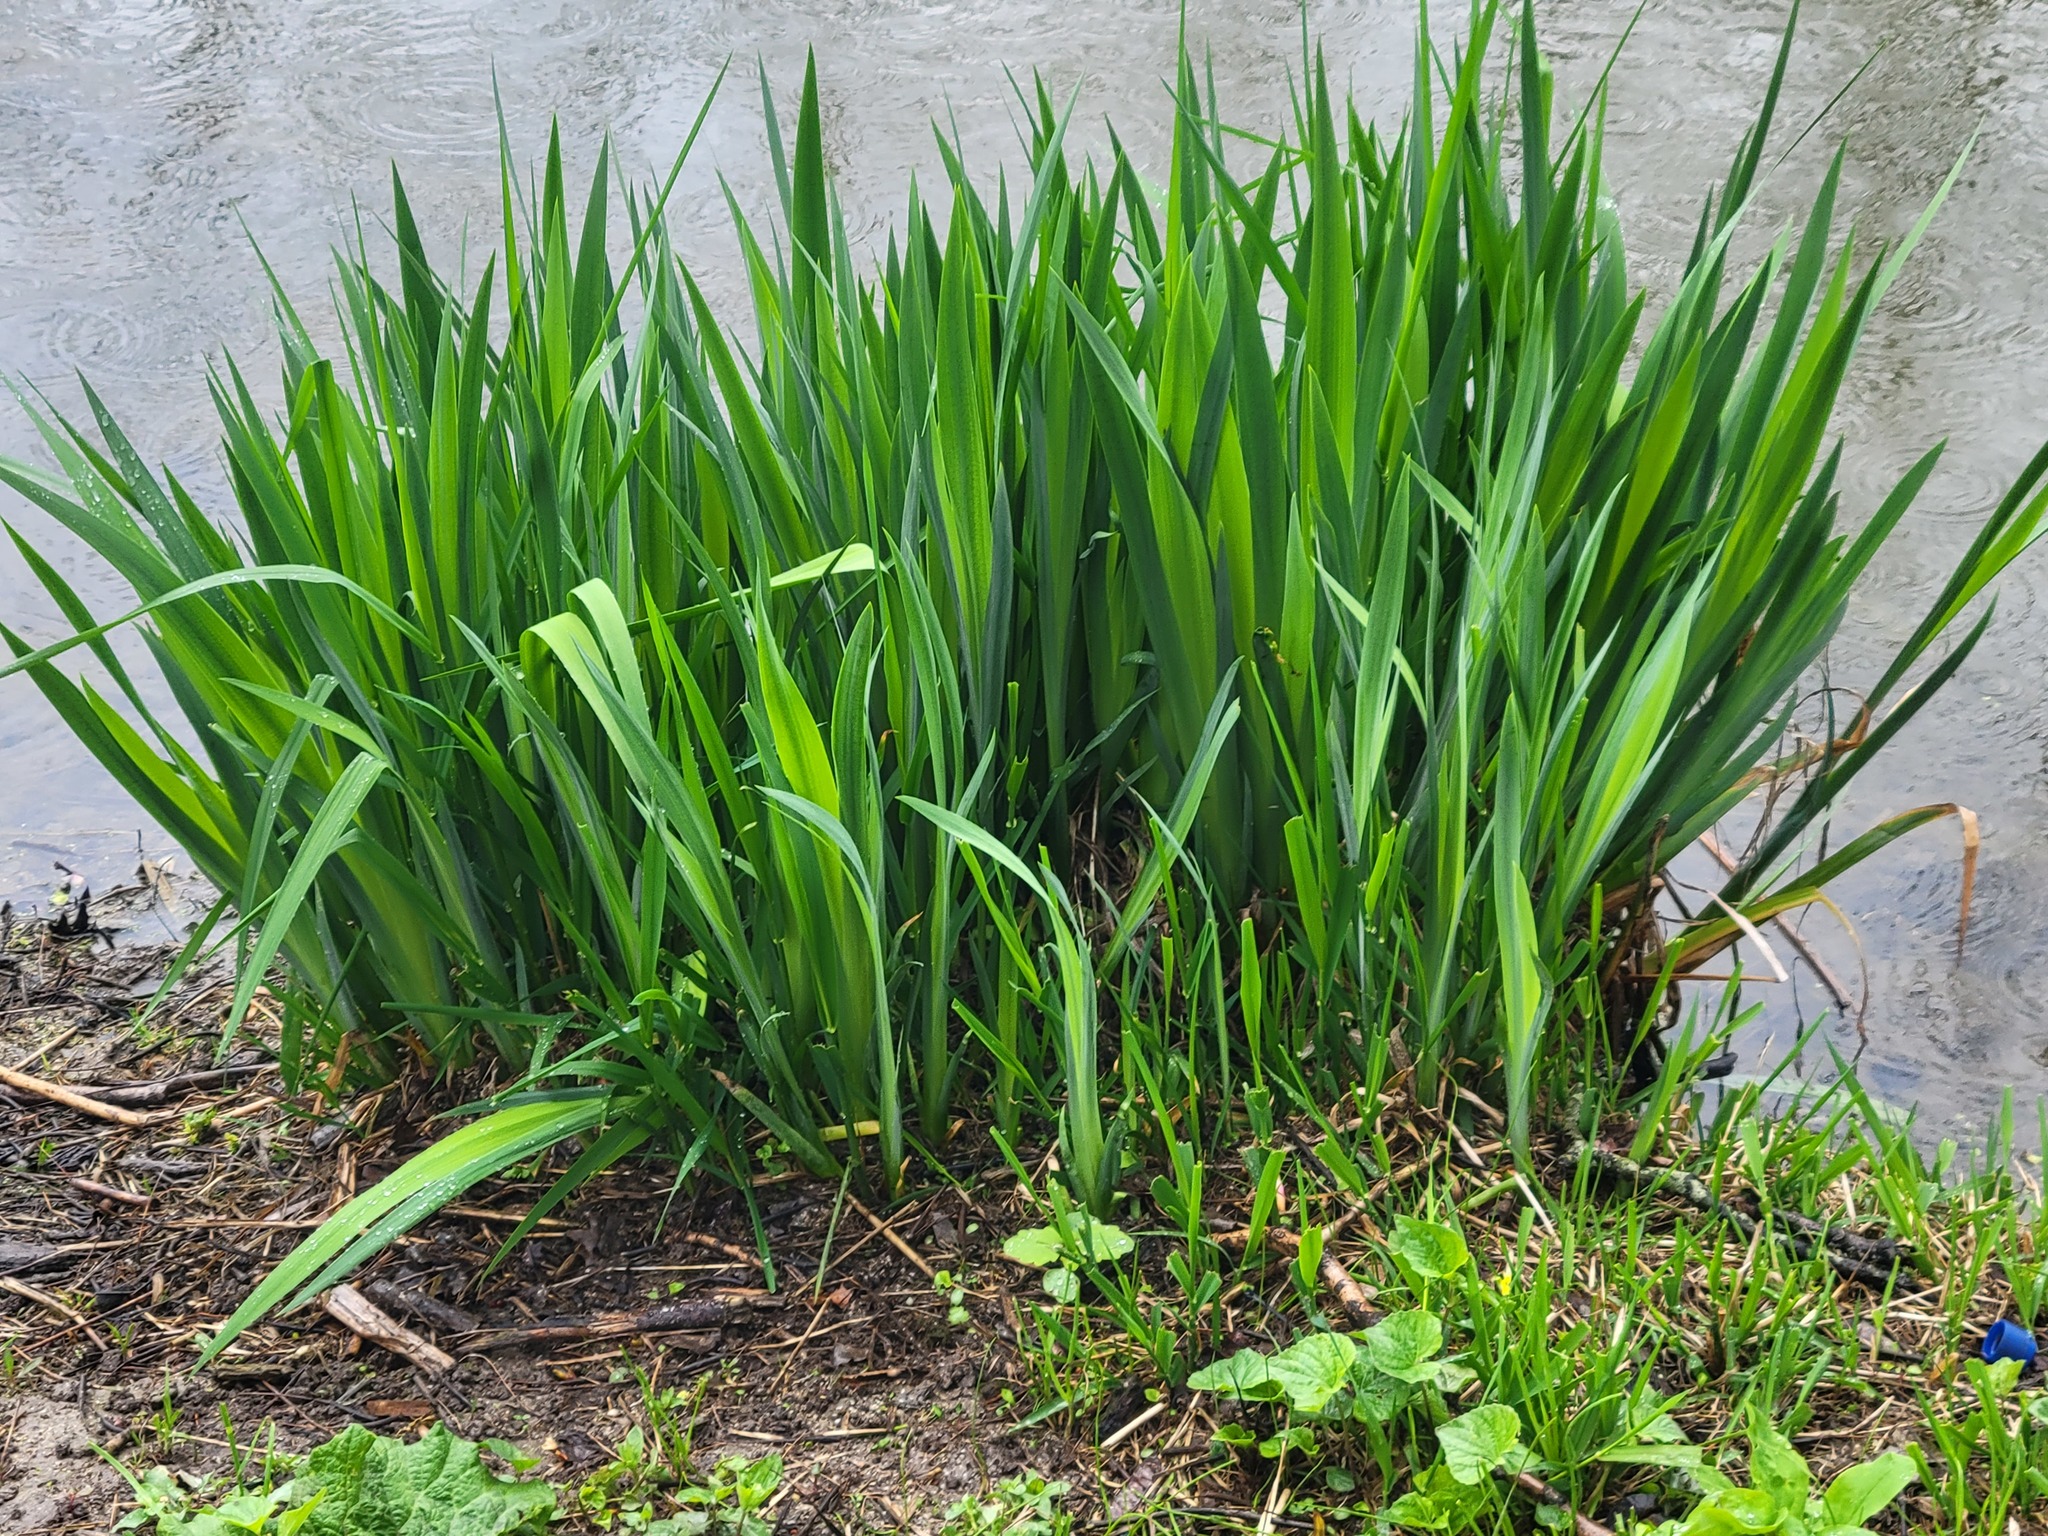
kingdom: Plantae
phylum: Tracheophyta
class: Liliopsida
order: Asparagales
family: Iridaceae
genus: Iris
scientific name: Iris pseudacorus
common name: Yellow flag
